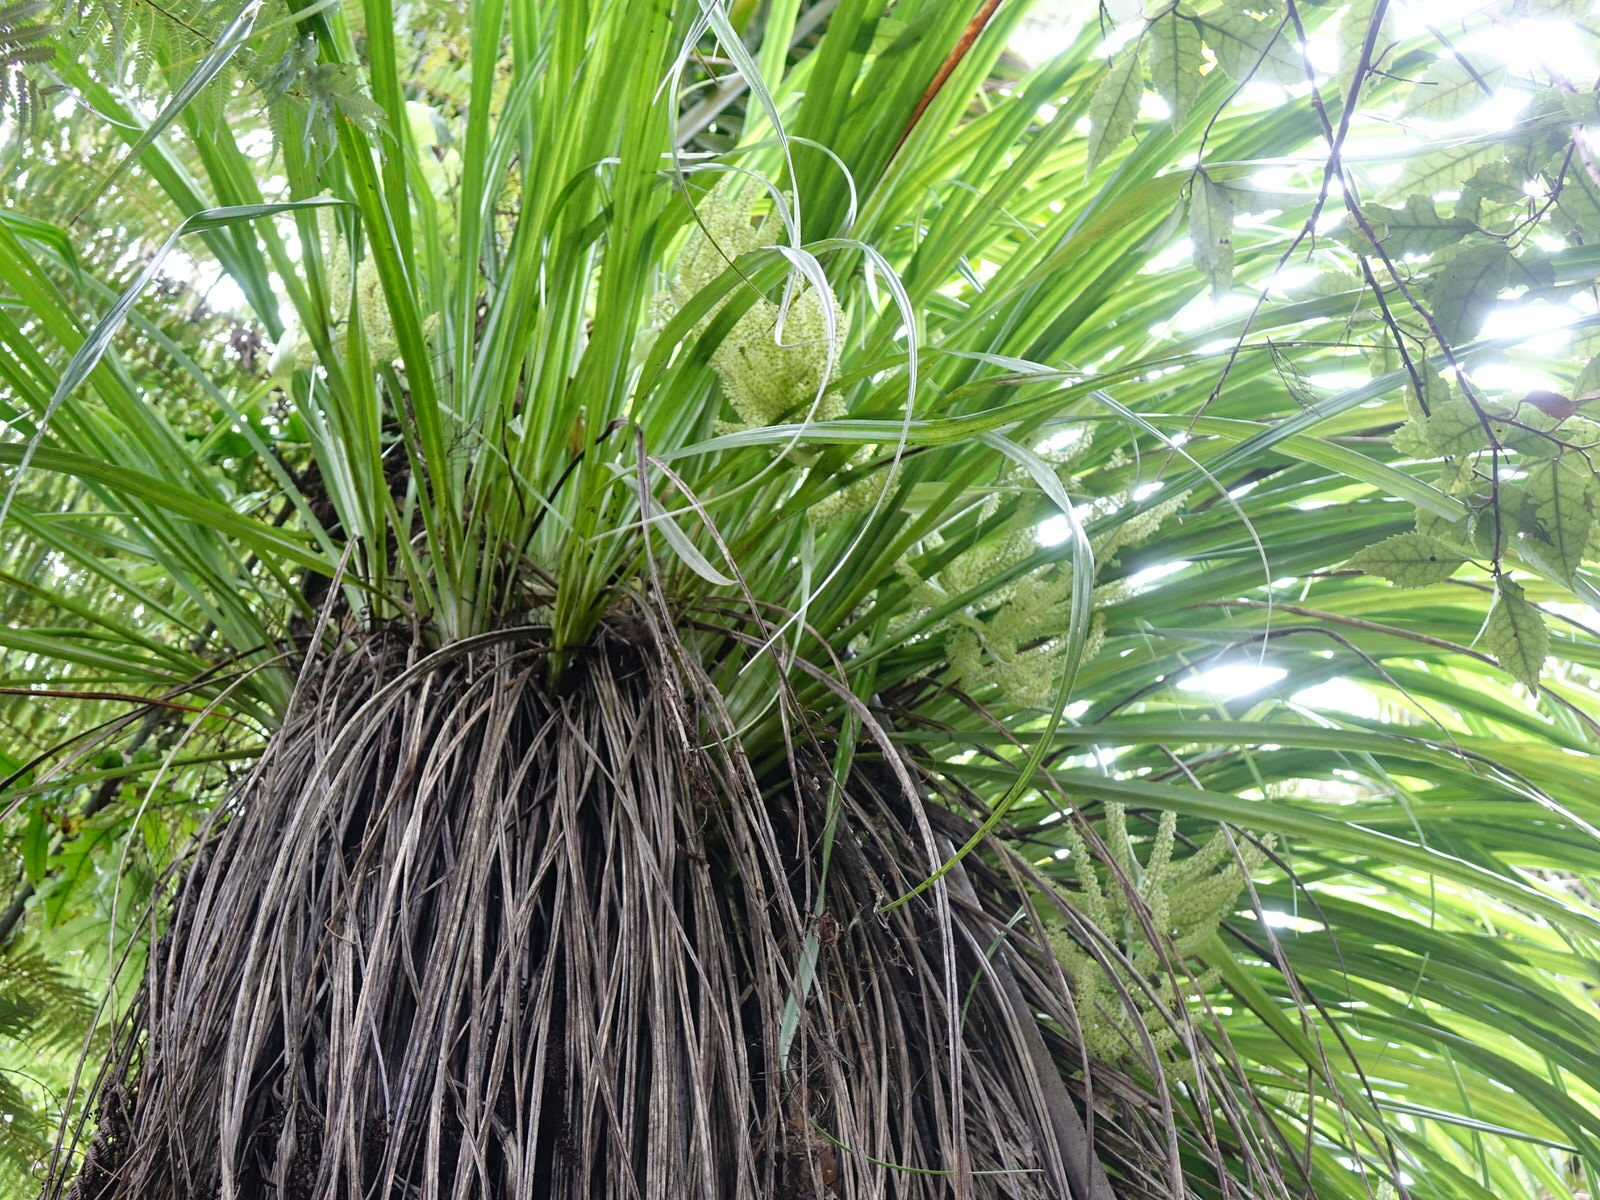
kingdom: Plantae
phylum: Tracheophyta
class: Liliopsida
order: Asparagales
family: Asteliaceae
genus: Astelia
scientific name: Astelia solandri
